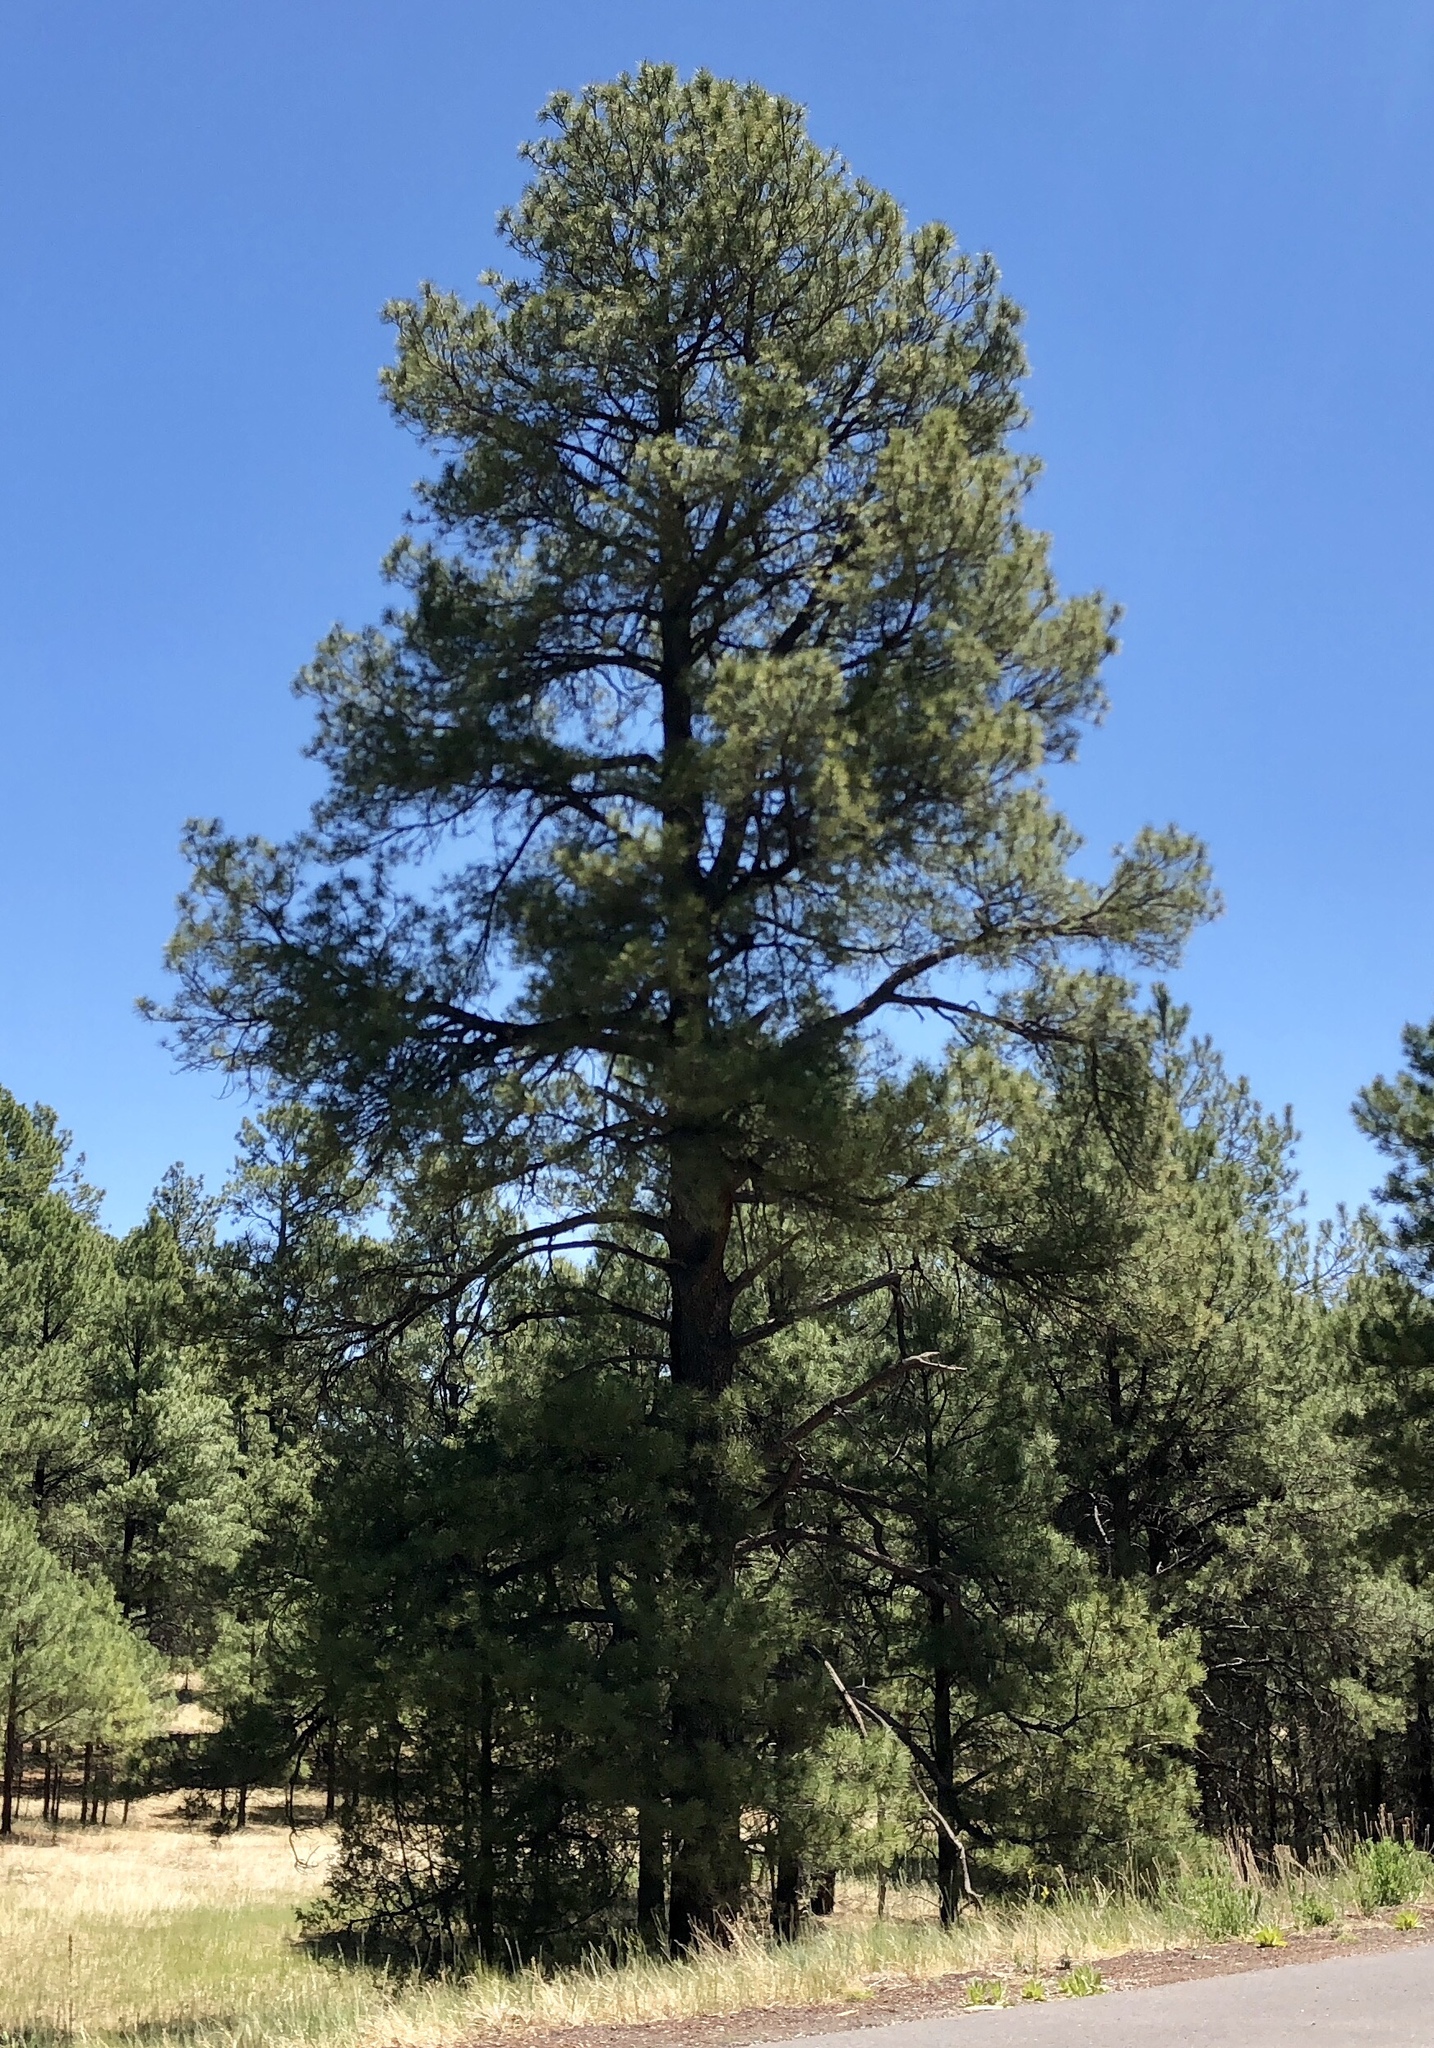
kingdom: Plantae
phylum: Tracheophyta
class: Pinopsida
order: Pinales
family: Pinaceae
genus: Pinus
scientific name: Pinus ponderosa
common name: Western yellow-pine
